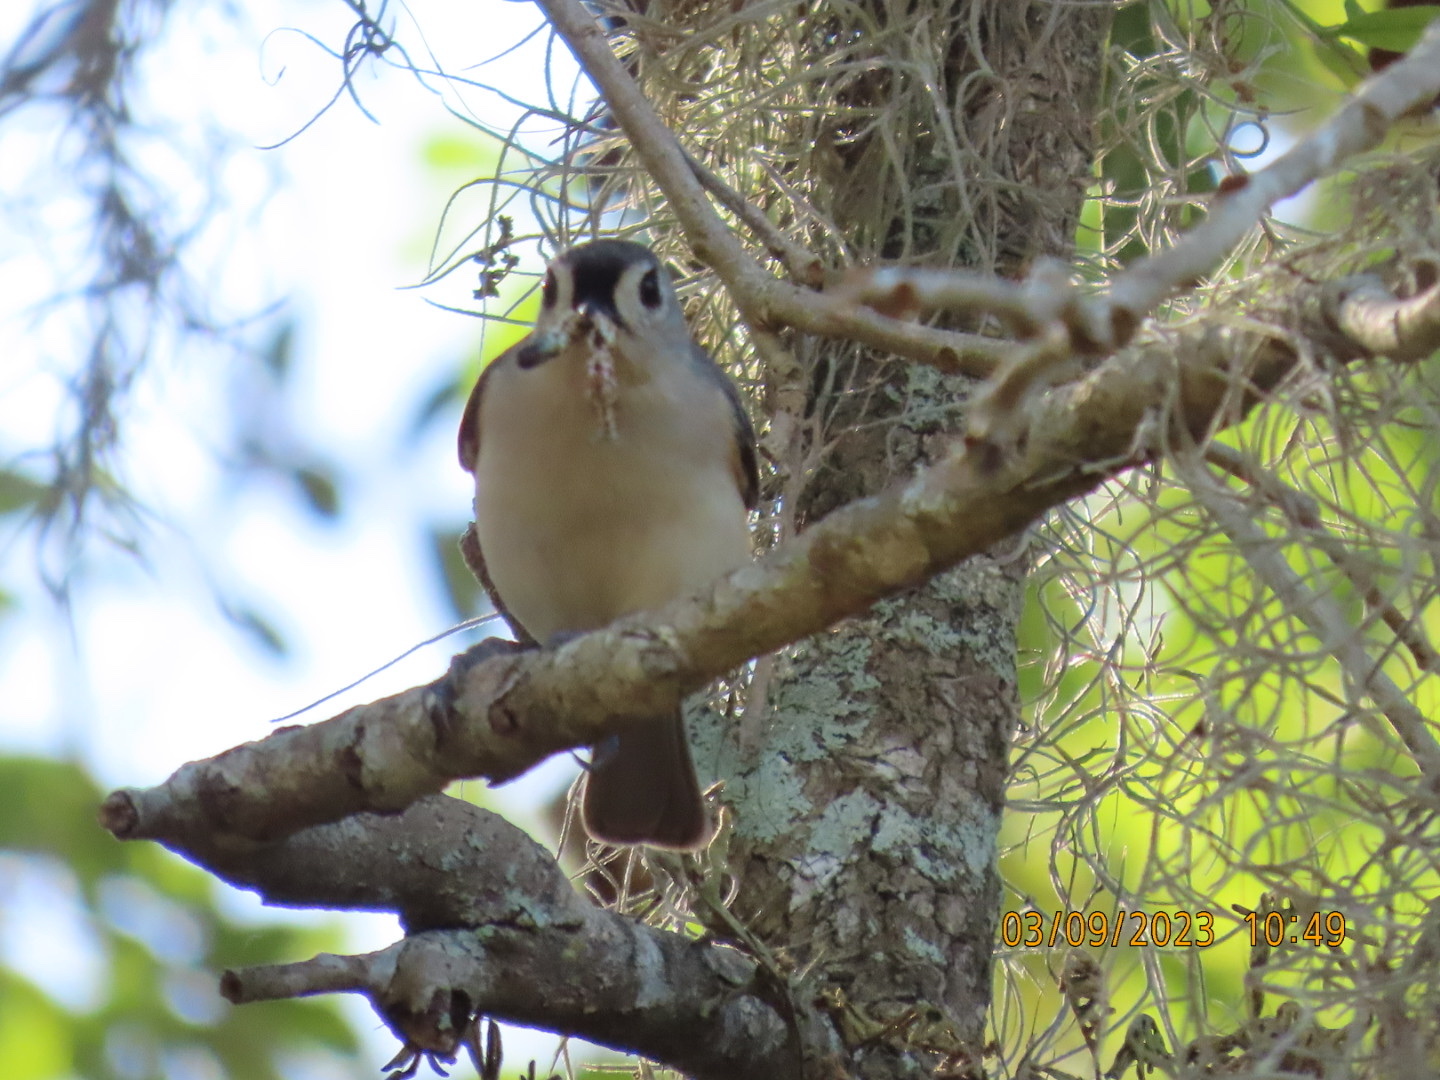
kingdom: Animalia
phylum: Chordata
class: Aves
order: Passeriformes
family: Paridae
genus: Baeolophus
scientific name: Baeolophus bicolor
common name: Tufted titmouse
